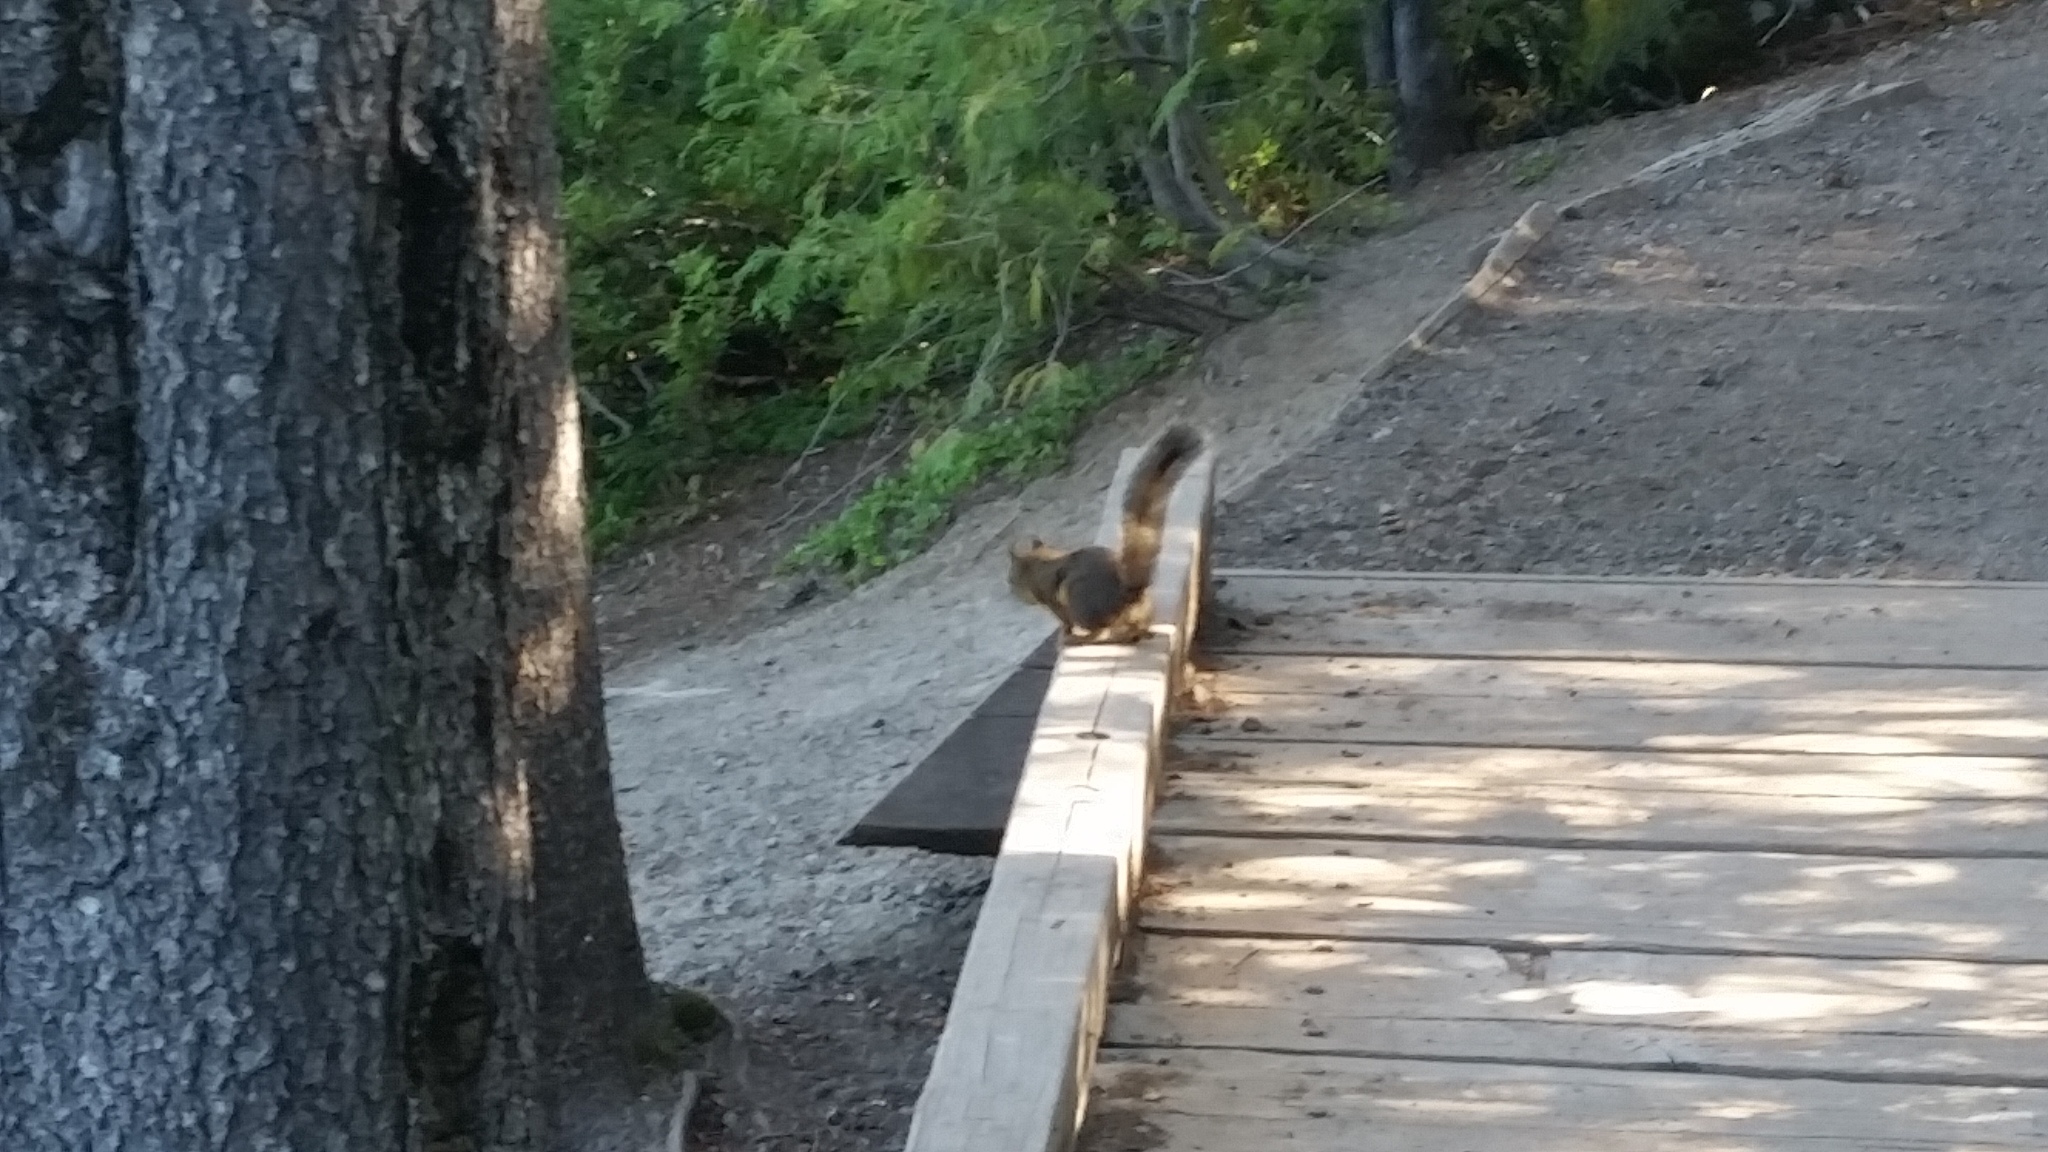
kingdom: Animalia
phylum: Chordata
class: Mammalia
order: Rodentia
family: Sciuridae
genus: Tamiasciurus
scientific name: Tamiasciurus douglasii
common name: Douglas's squirrel
